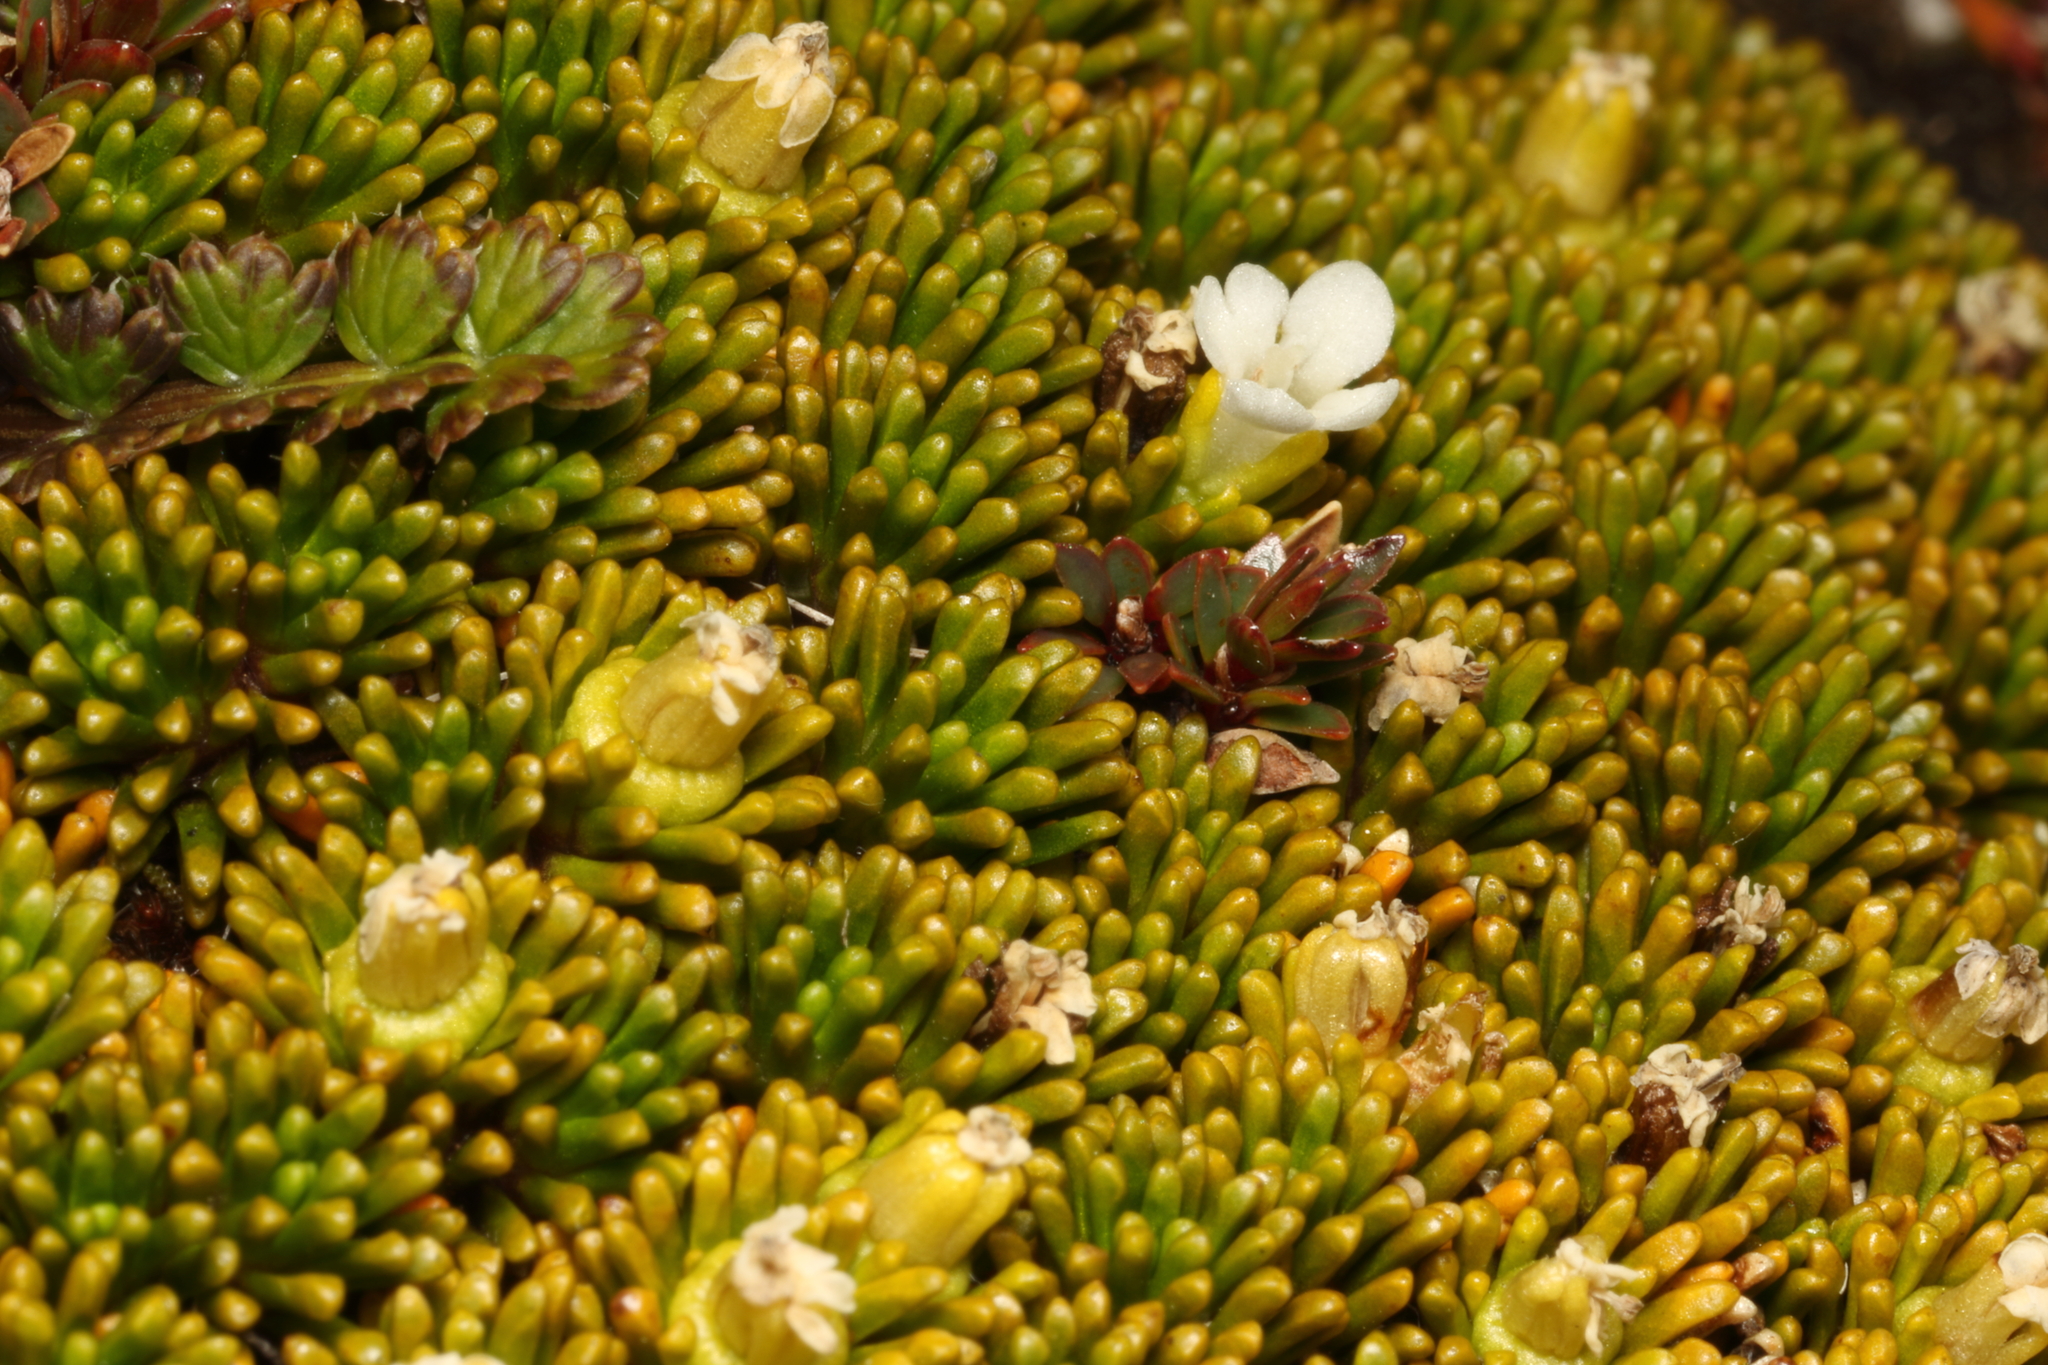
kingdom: Plantae
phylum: Tracheophyta
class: Magnoliopsida
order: Asterales
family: Stylidiaceae
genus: Phyllachne
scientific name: Phyllachne colensoi
